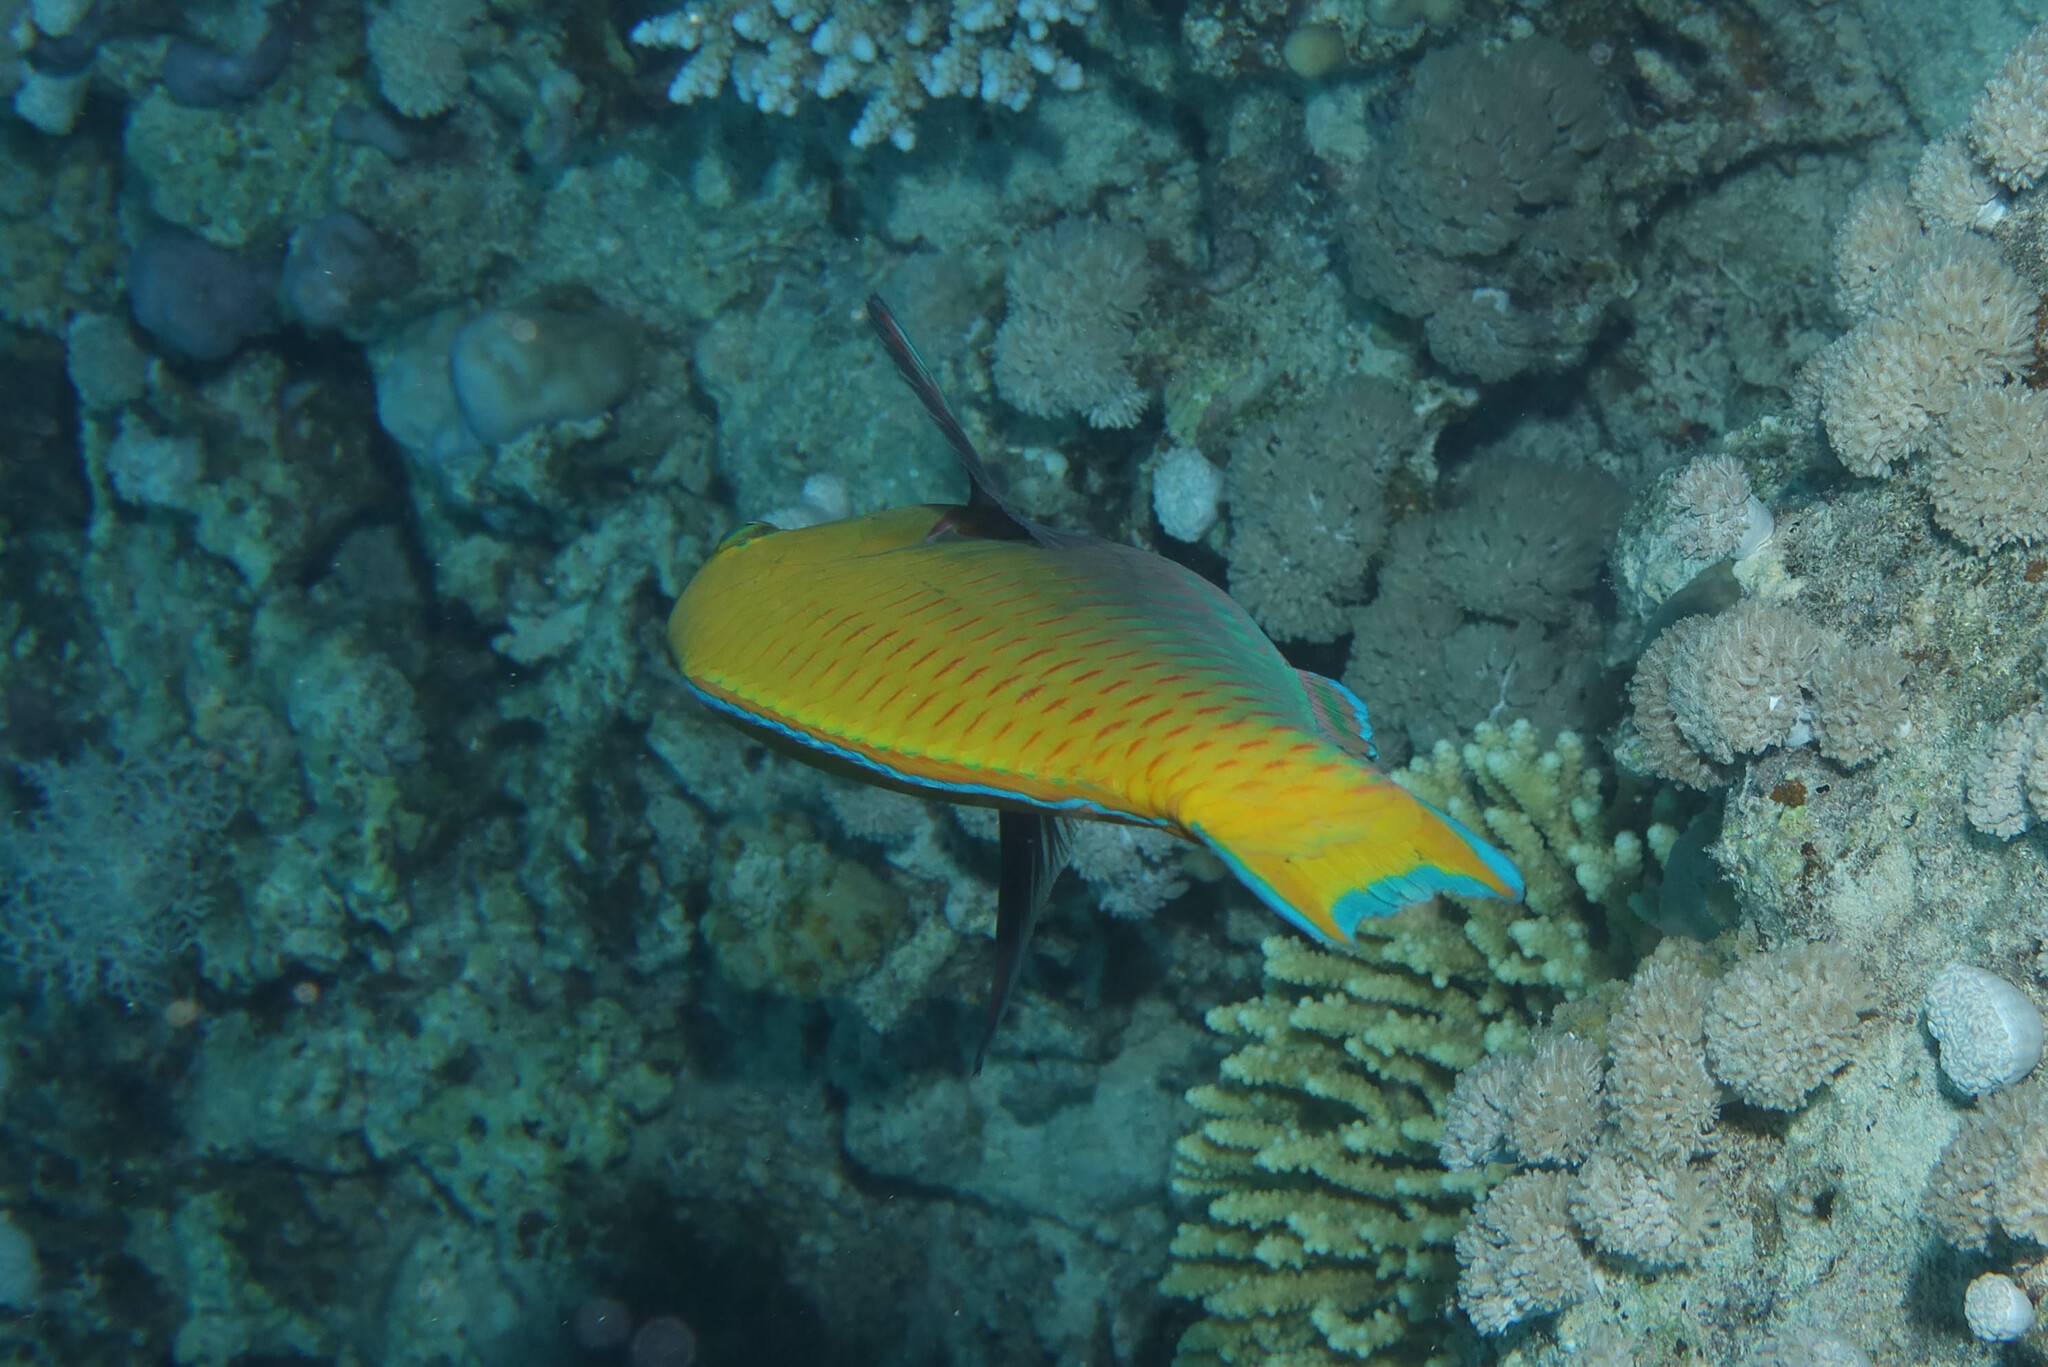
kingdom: Animalia
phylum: Chordata
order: Perciformes
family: Scaridae
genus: Chlorurus
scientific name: Chlorurus gibbus
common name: Heavybeak parrotfish
